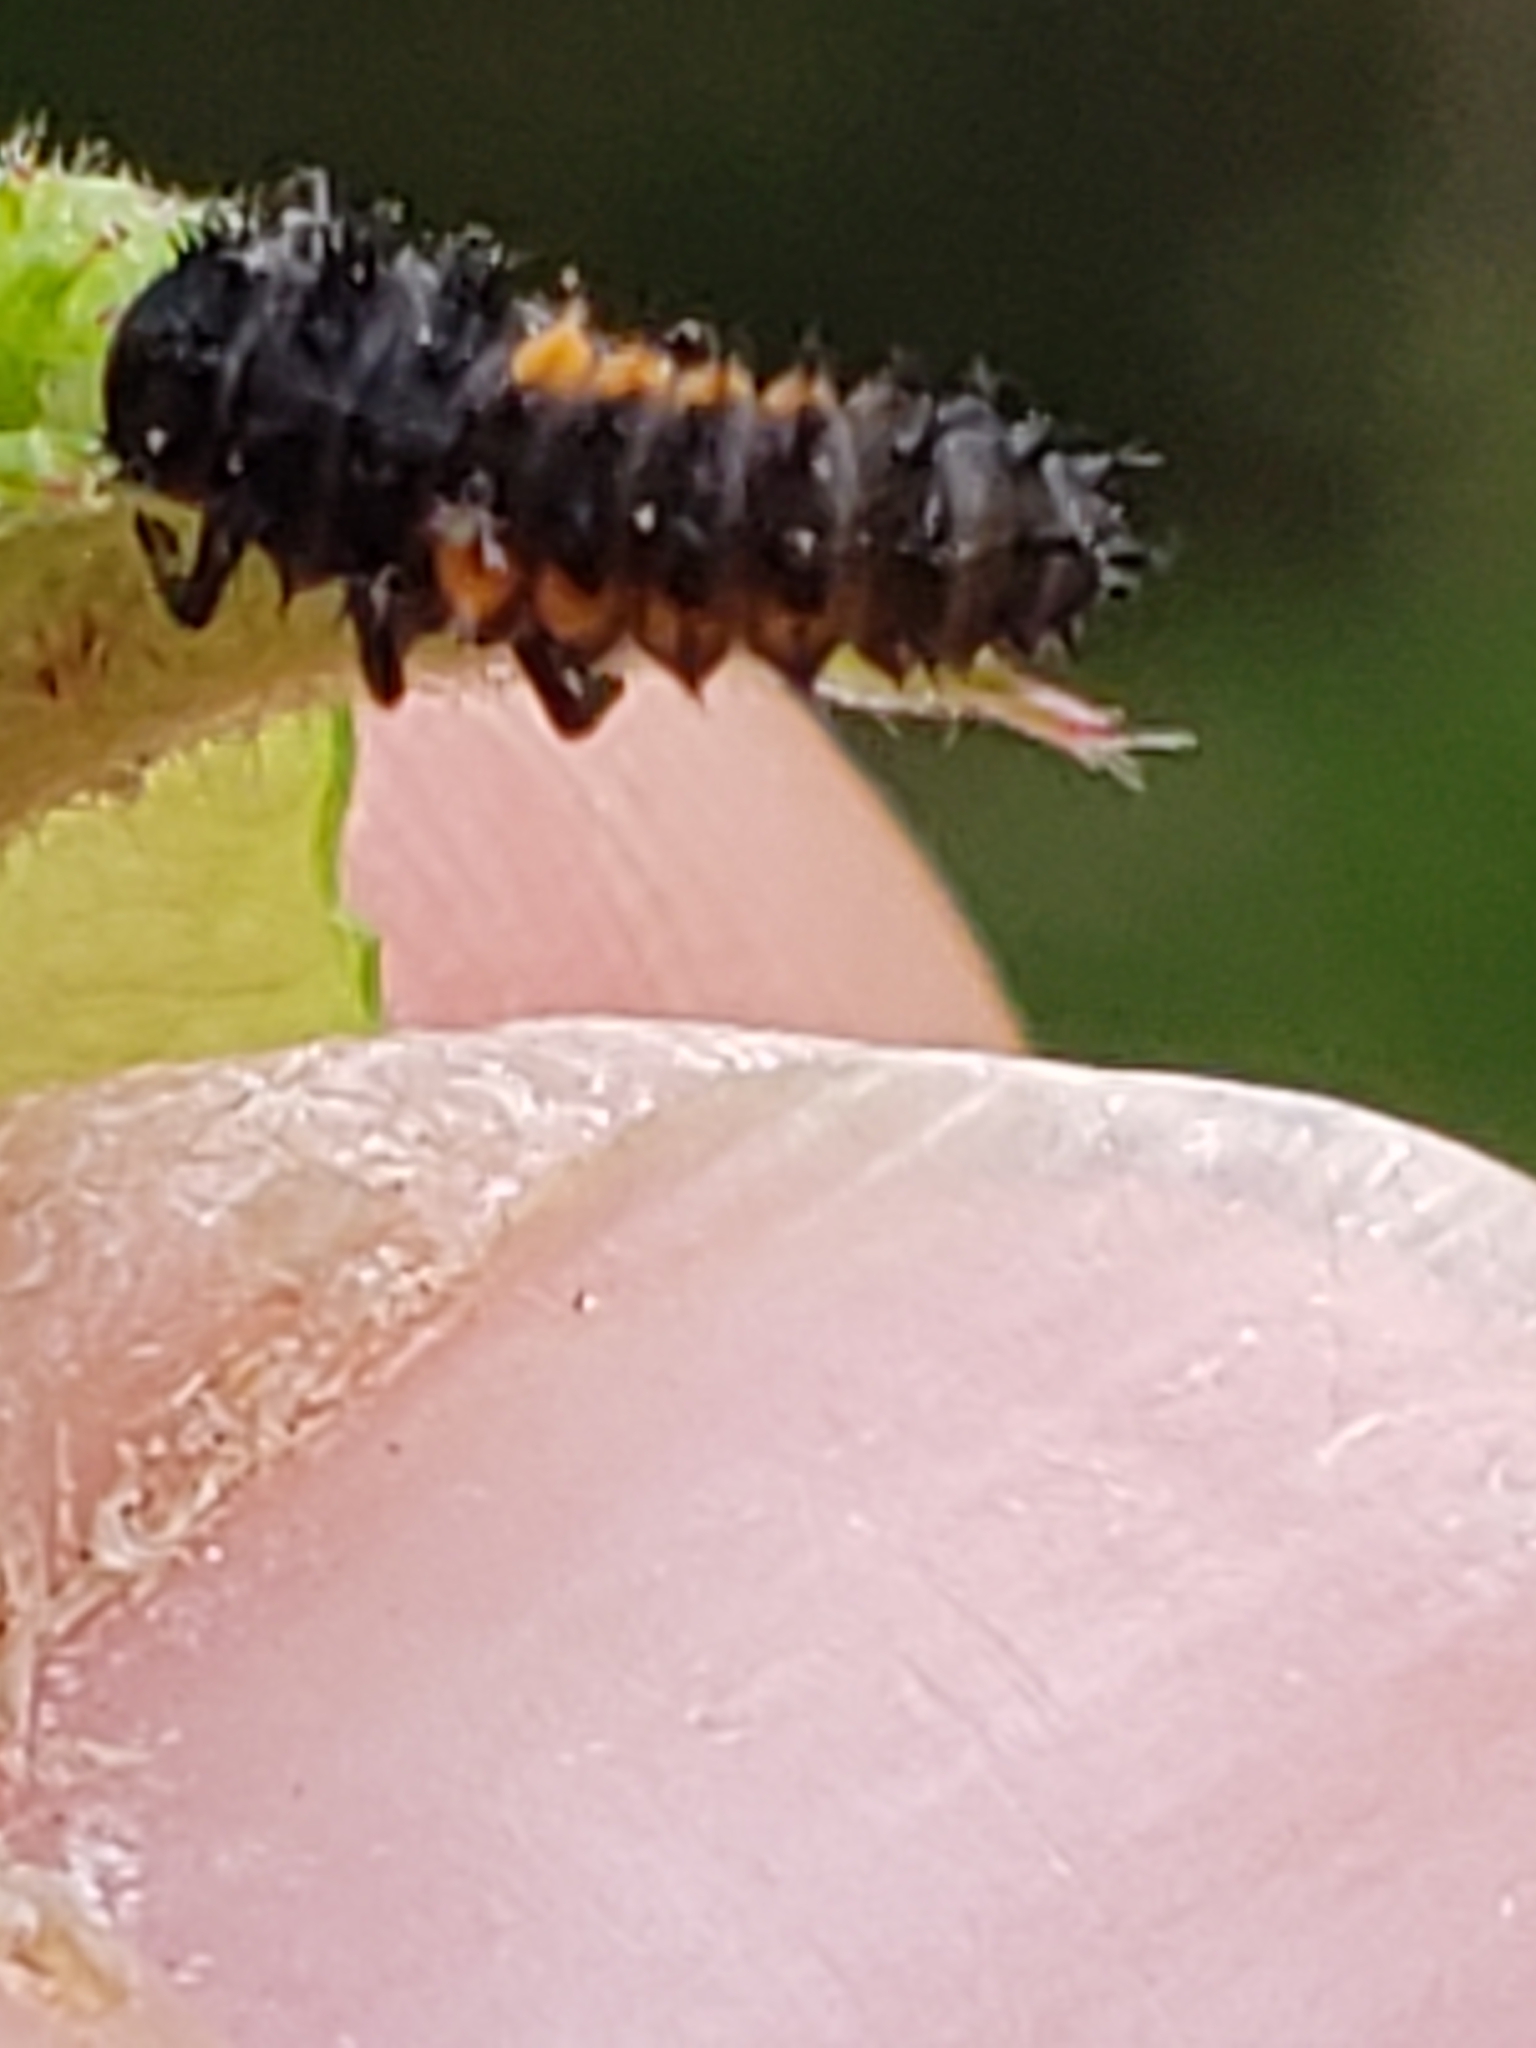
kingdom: Animalia
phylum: Arthropoda
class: Insecta
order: Coleoptera
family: Coccinellidae
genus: Harmonia
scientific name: Harmonia axyridis
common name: Harlequin ladybird
